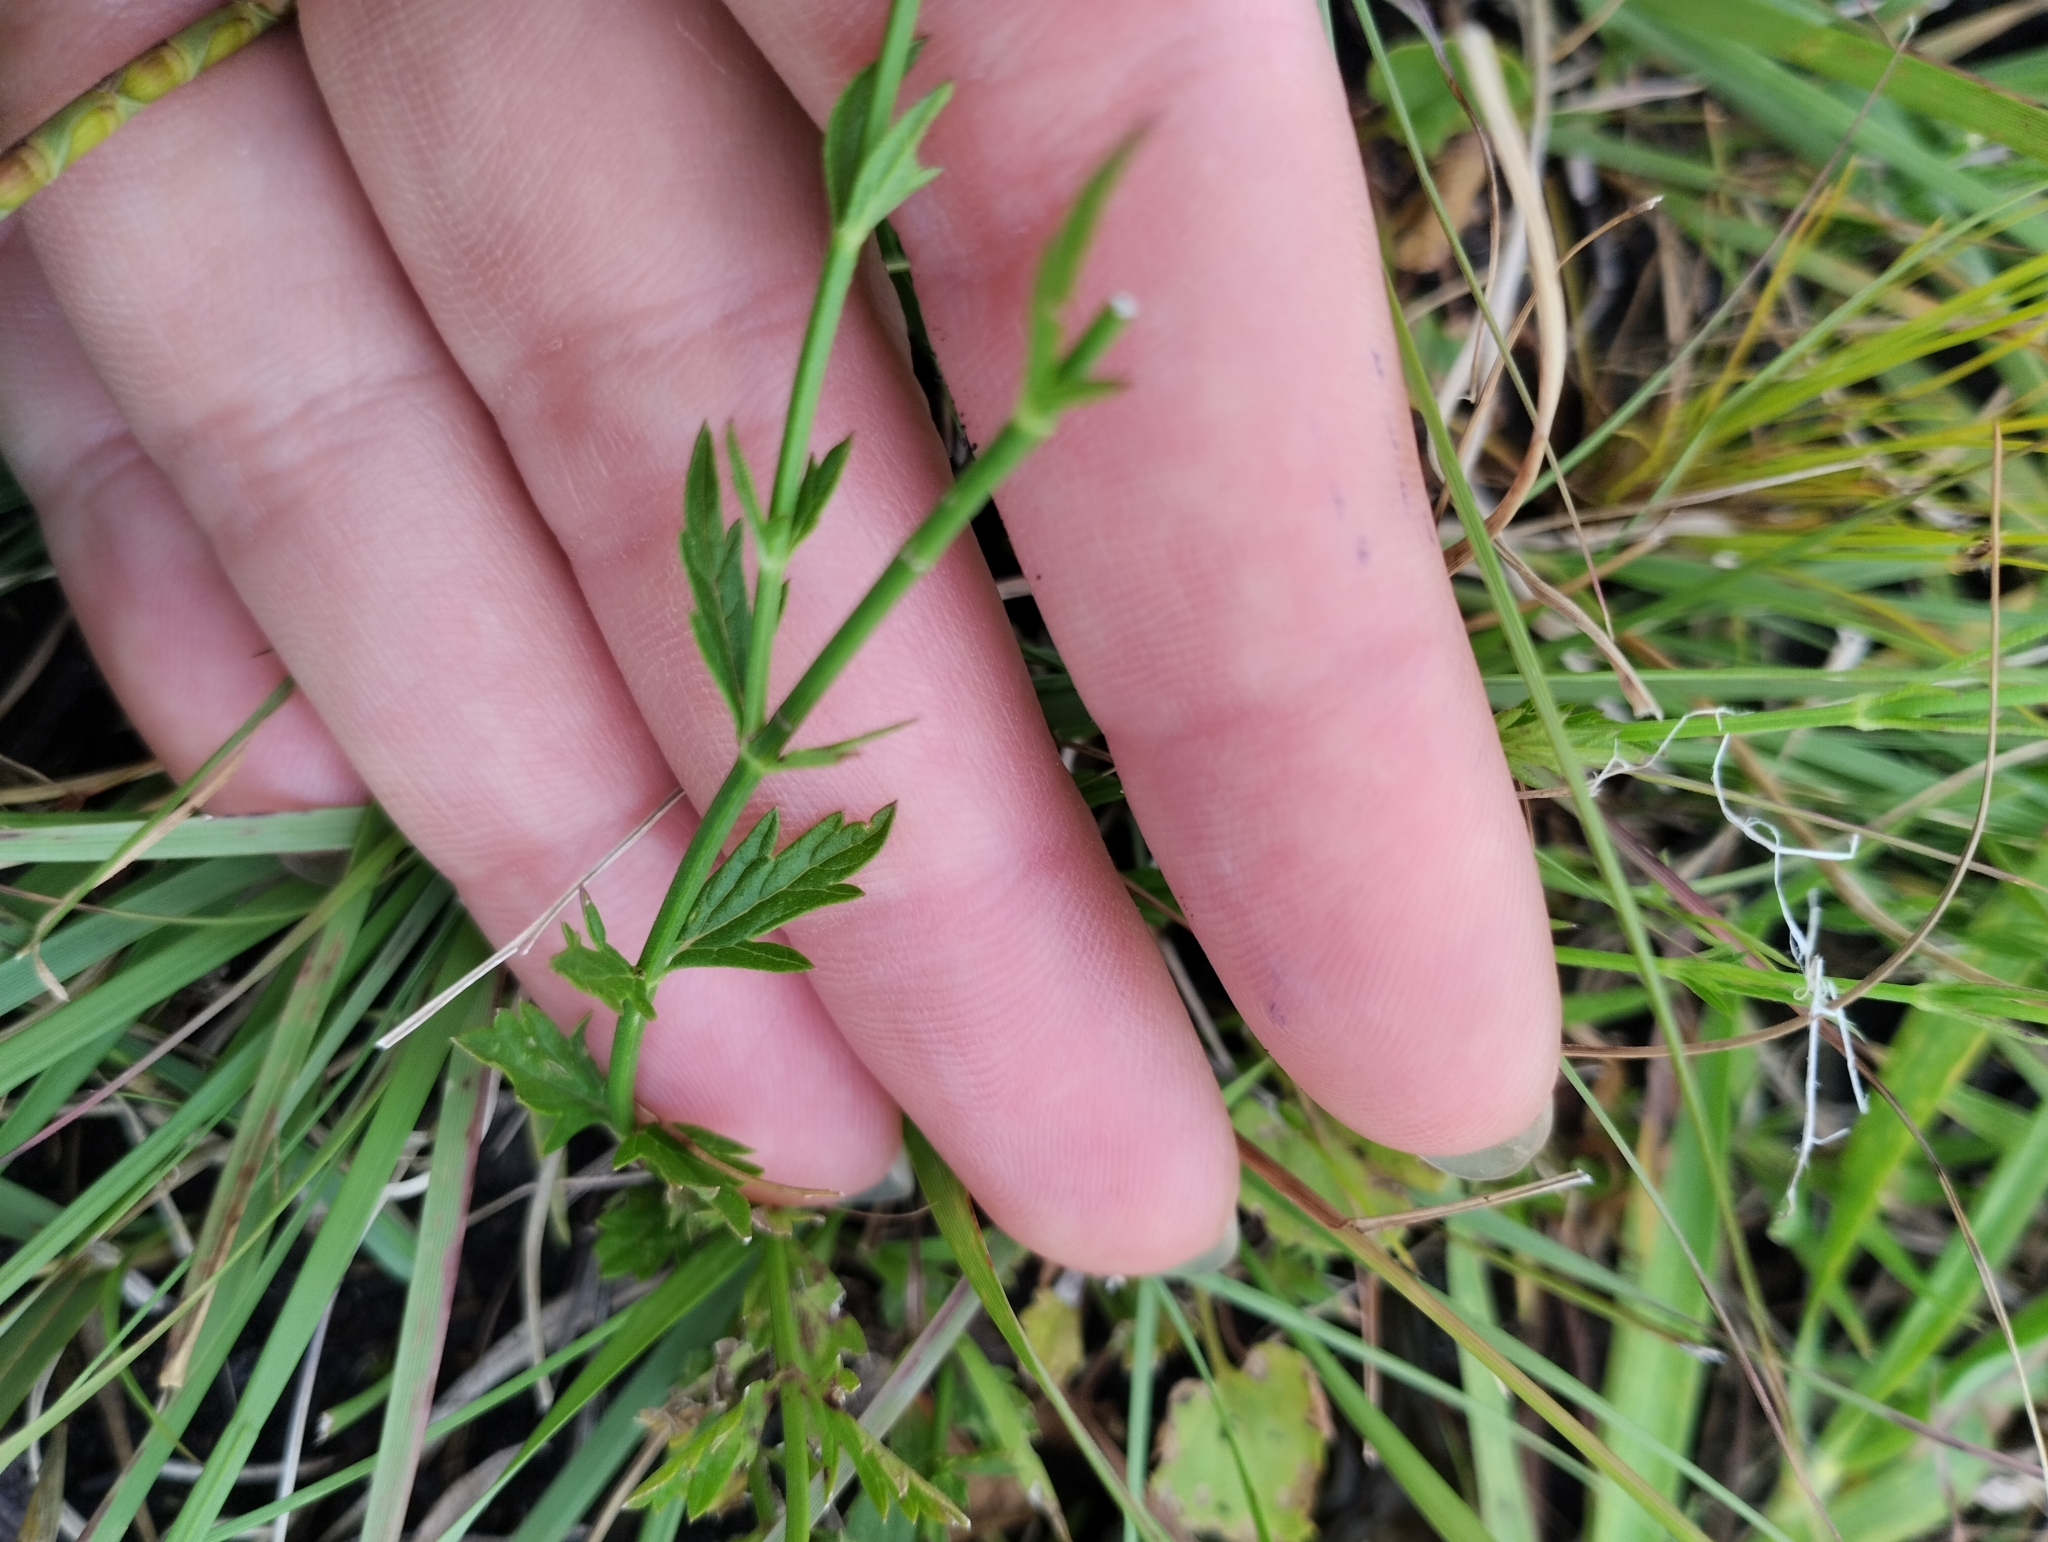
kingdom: Plantae
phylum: Tracheophyta
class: Magnoliopsida
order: Lamiales
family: Verbenaceae
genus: Verbena
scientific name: Verbena gracilescens
